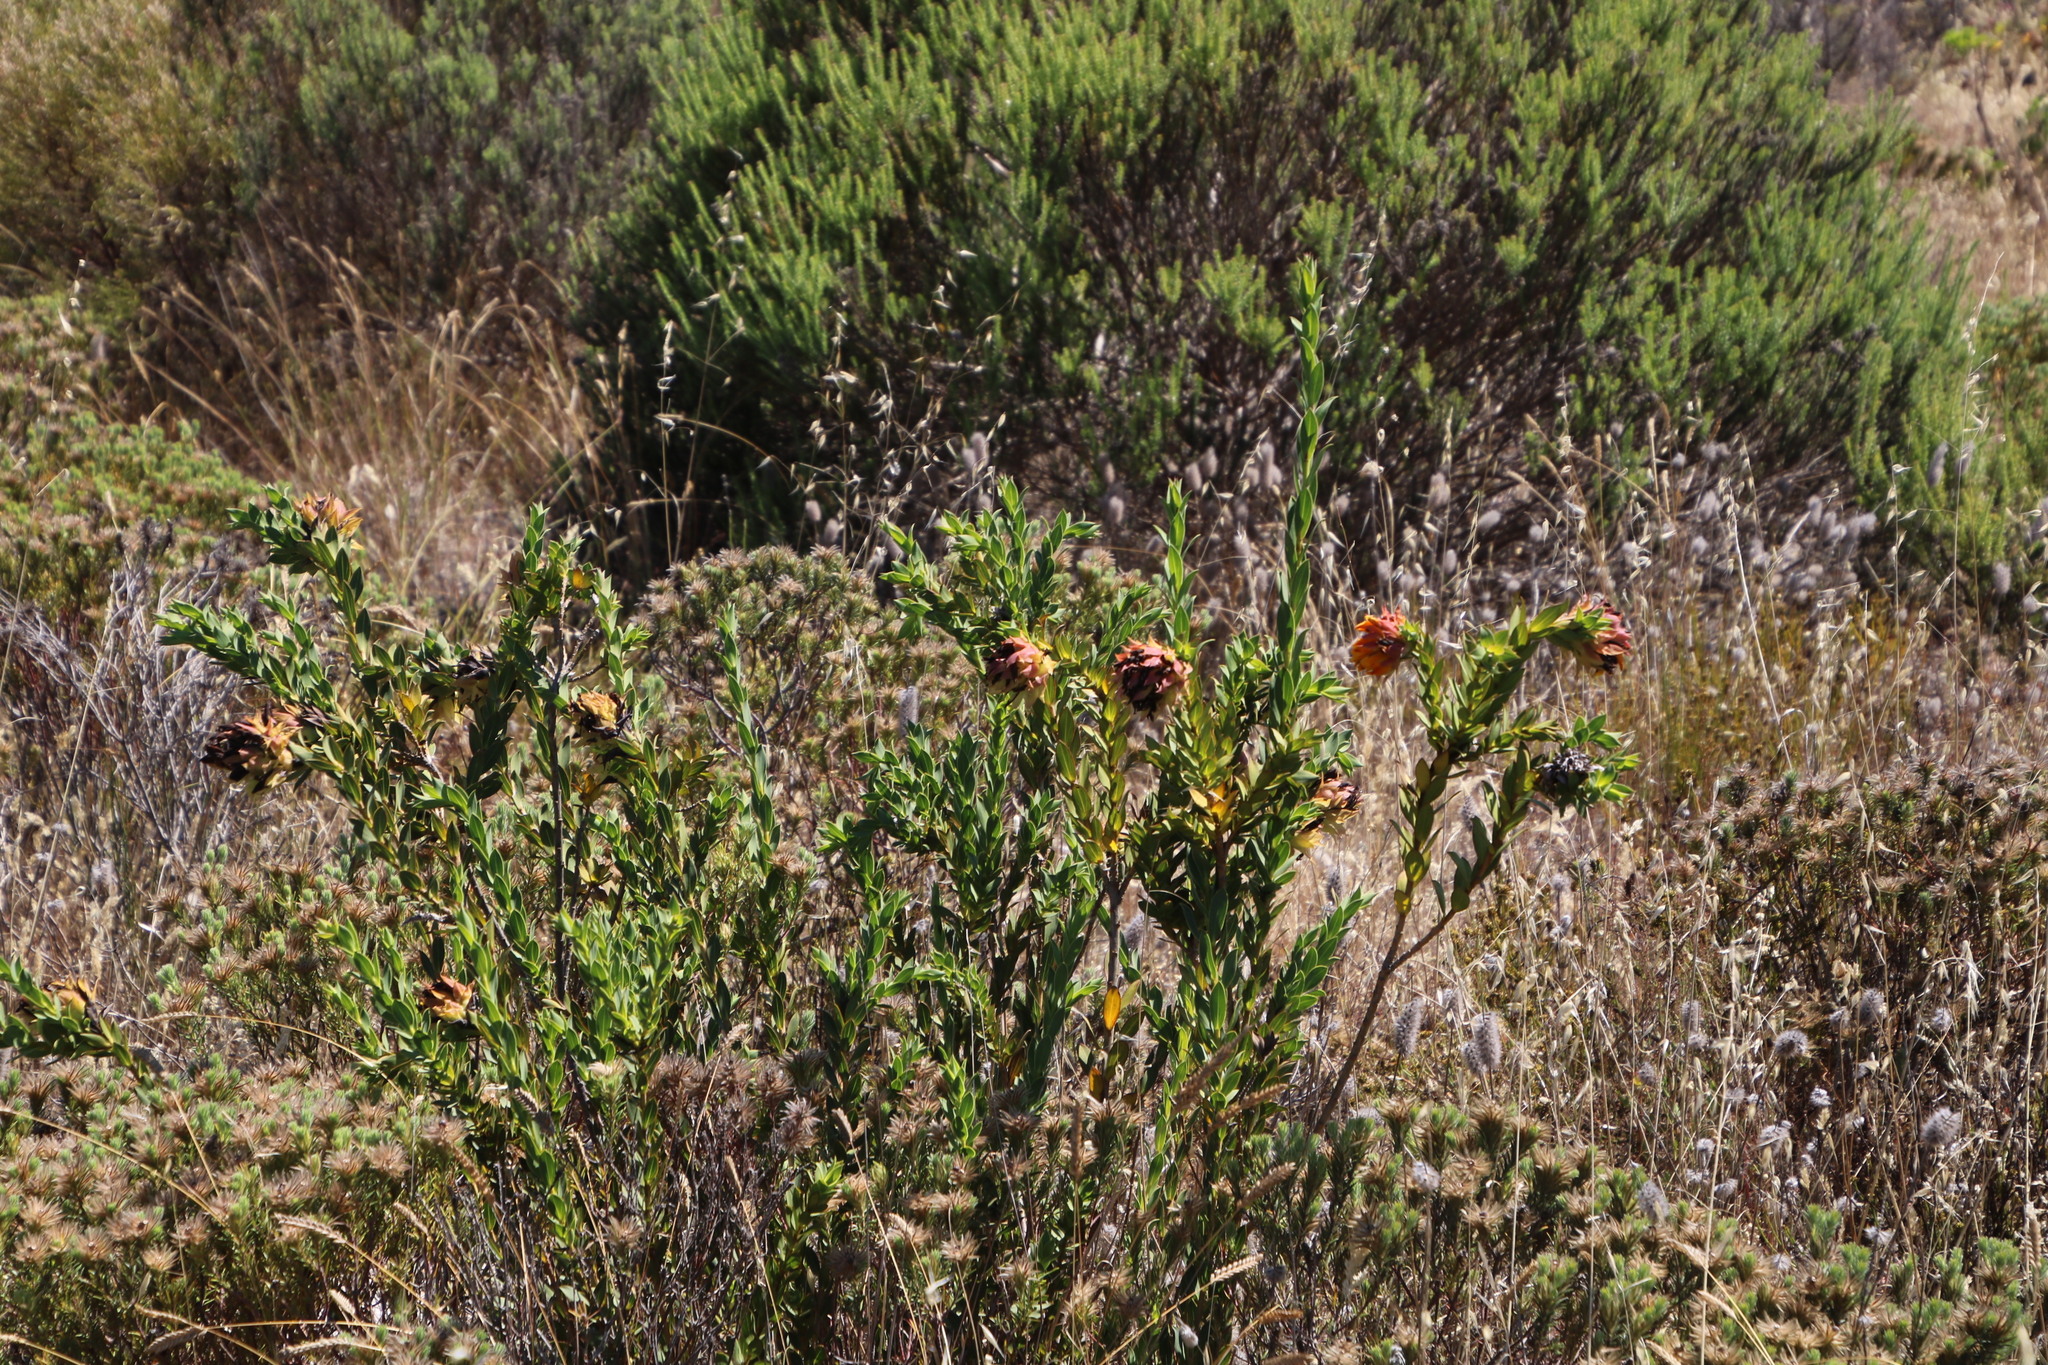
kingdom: Plantae
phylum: Tracheophyta
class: Magnoliopsida
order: Fabales
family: Fabaceae
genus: Liparia
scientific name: Liparia splendens
